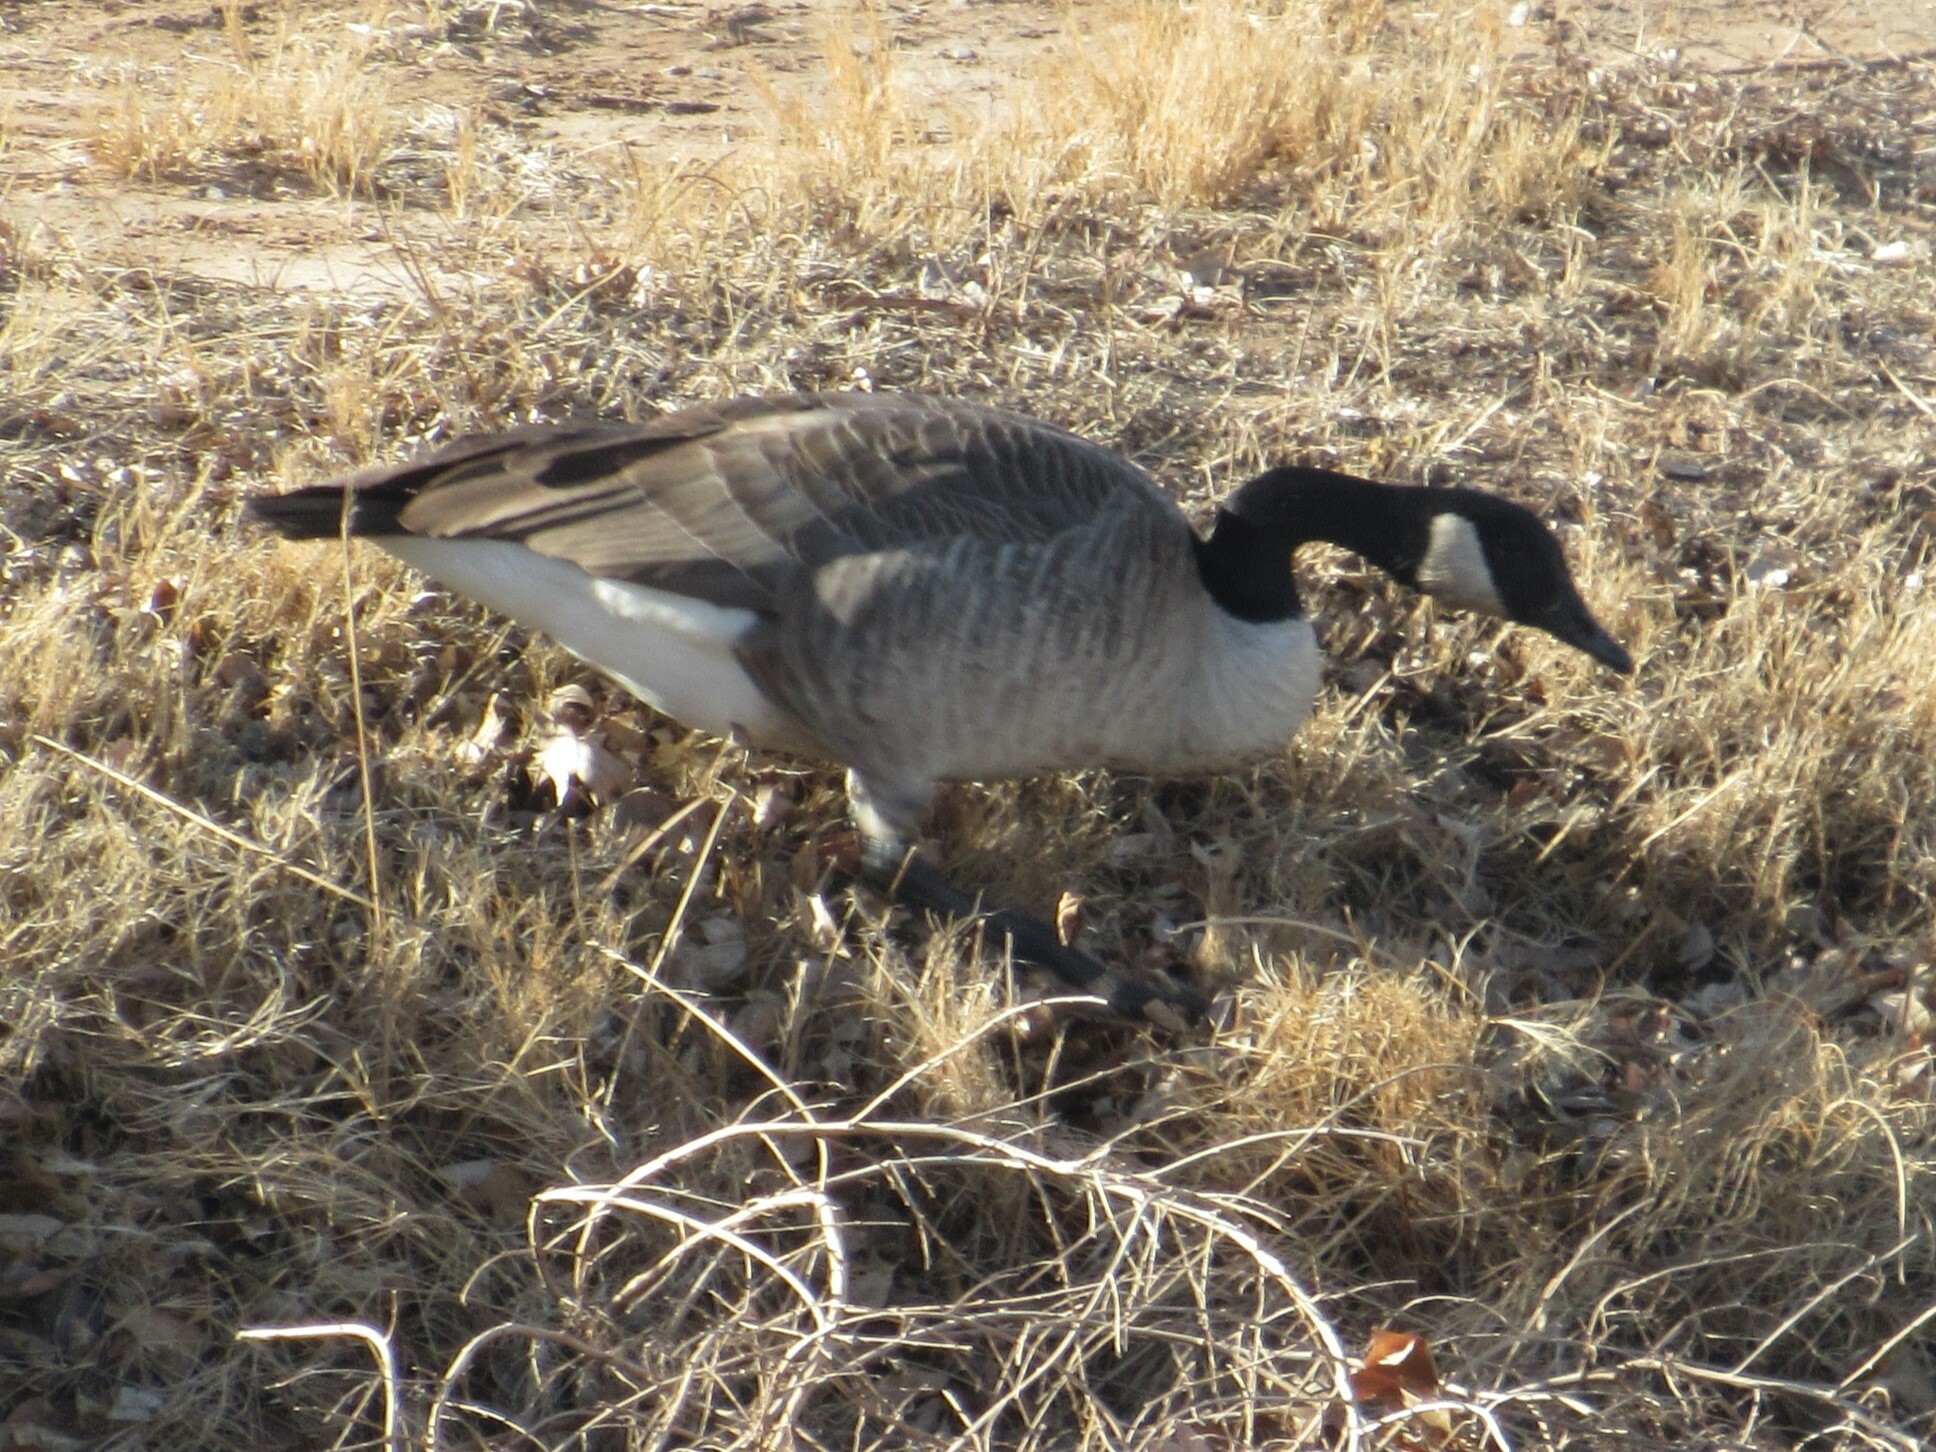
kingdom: Animalia
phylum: Chordata
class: Aves
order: Anseriformes
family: Anatidae
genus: Branta
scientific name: Branta canadensis
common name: Canada goose
